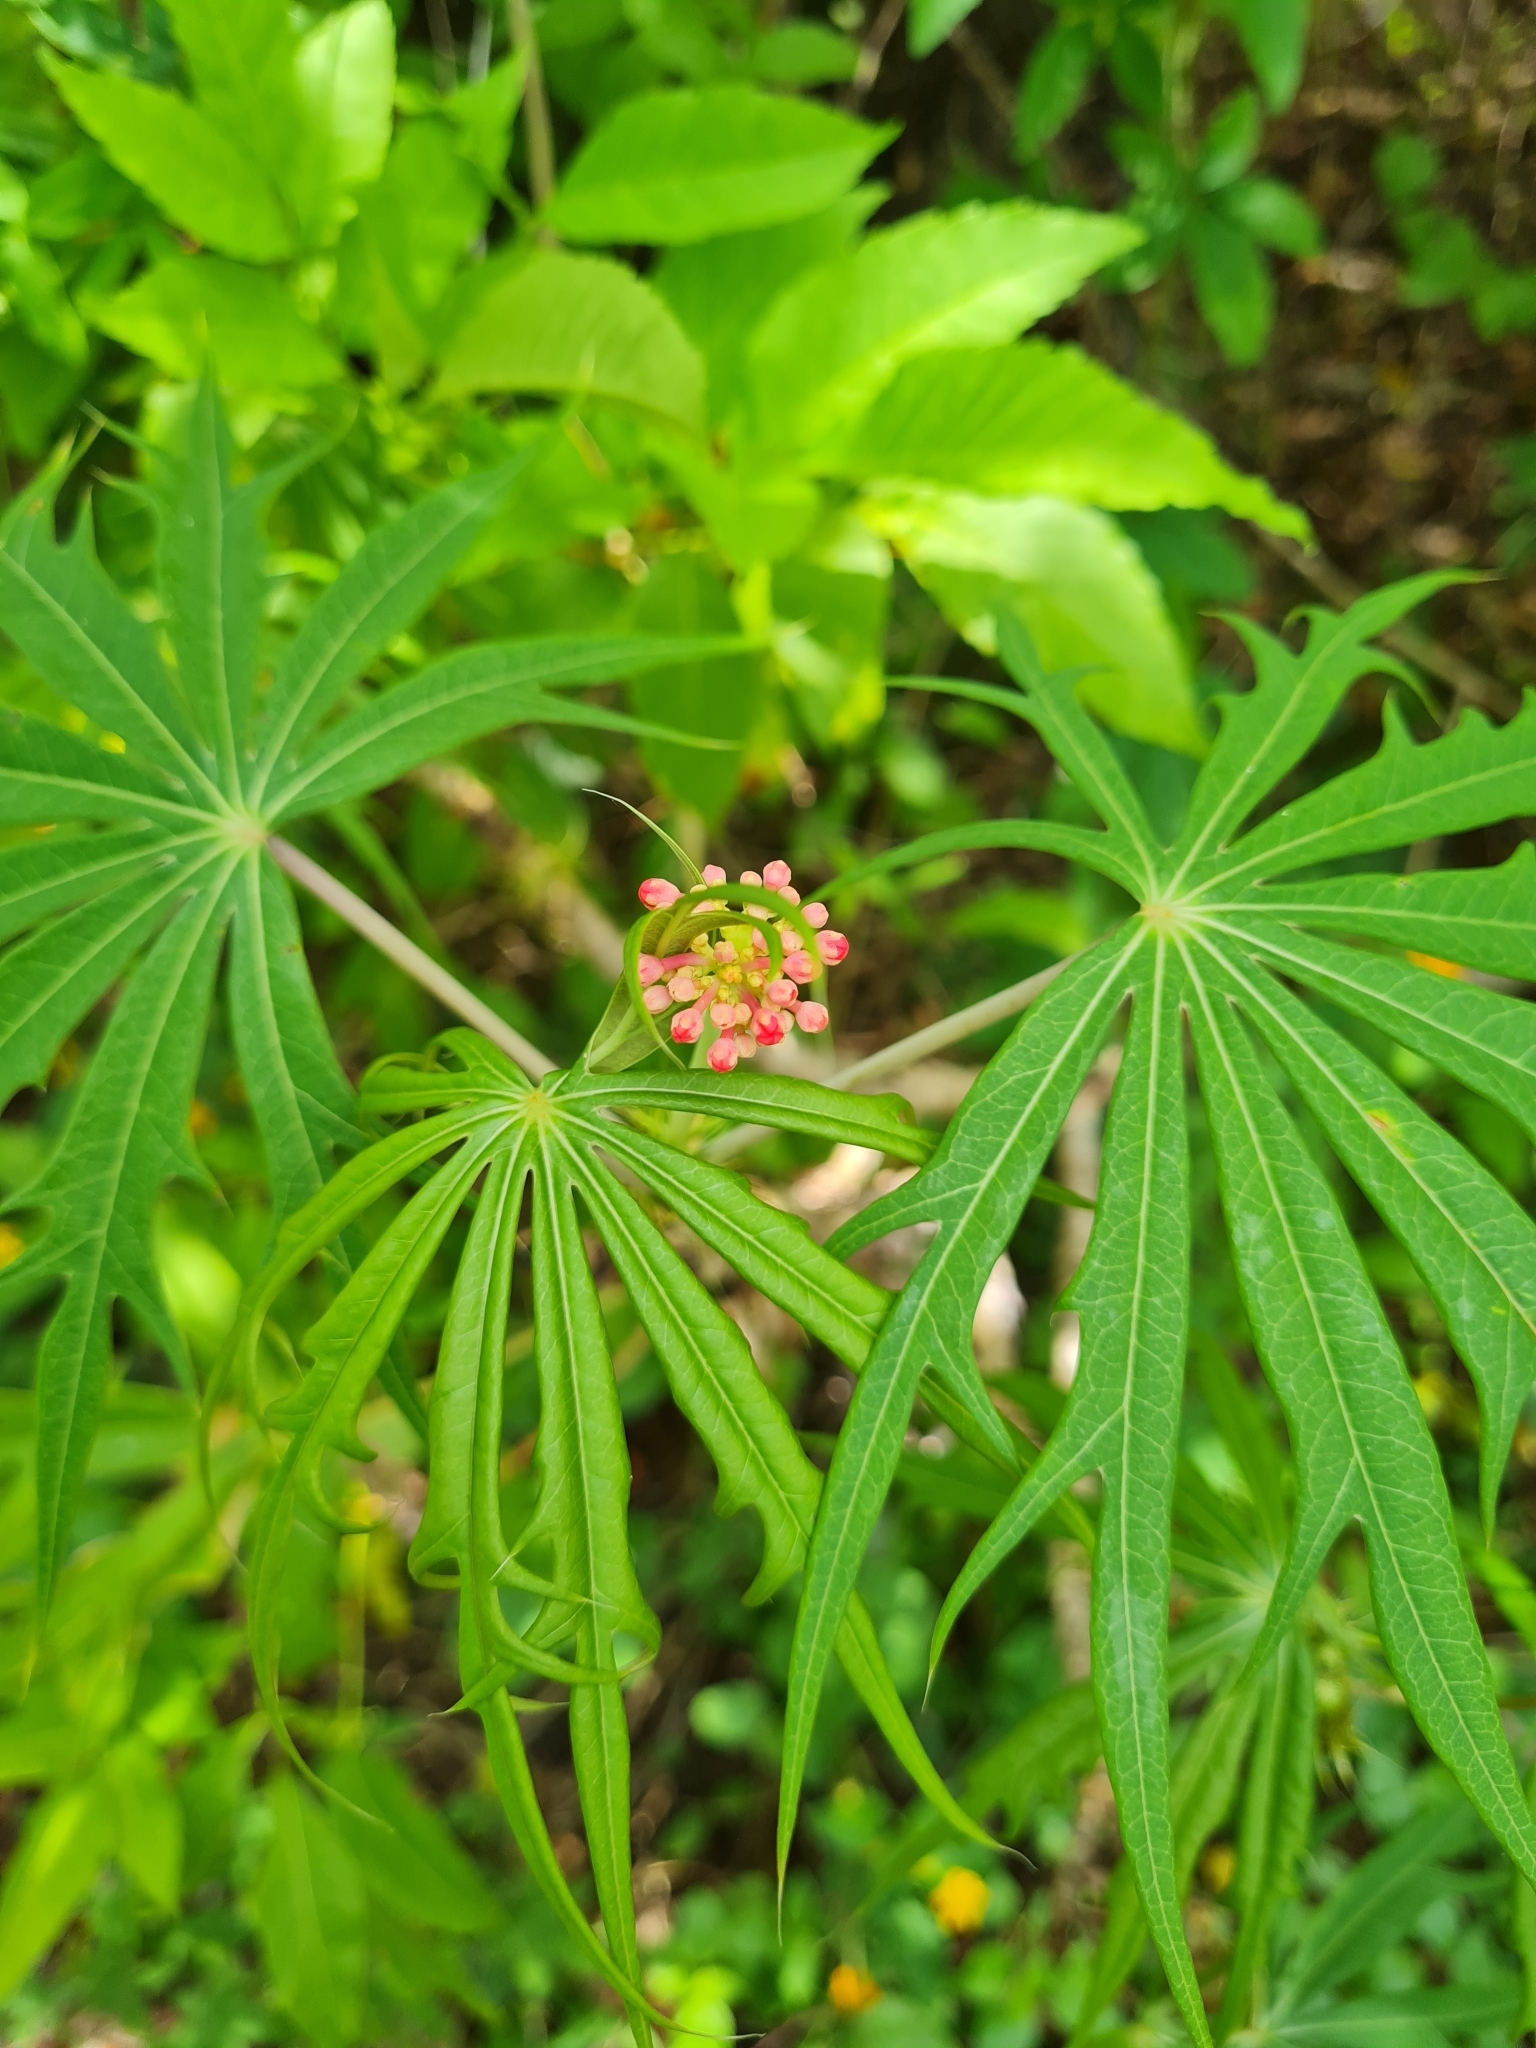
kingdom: Plantae
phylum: Tracheophyta
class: Magnoliopsida
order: Malpighiales
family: Euphorbiaceae
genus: Jatropha
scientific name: Jatropha multifida
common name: Coralbush
